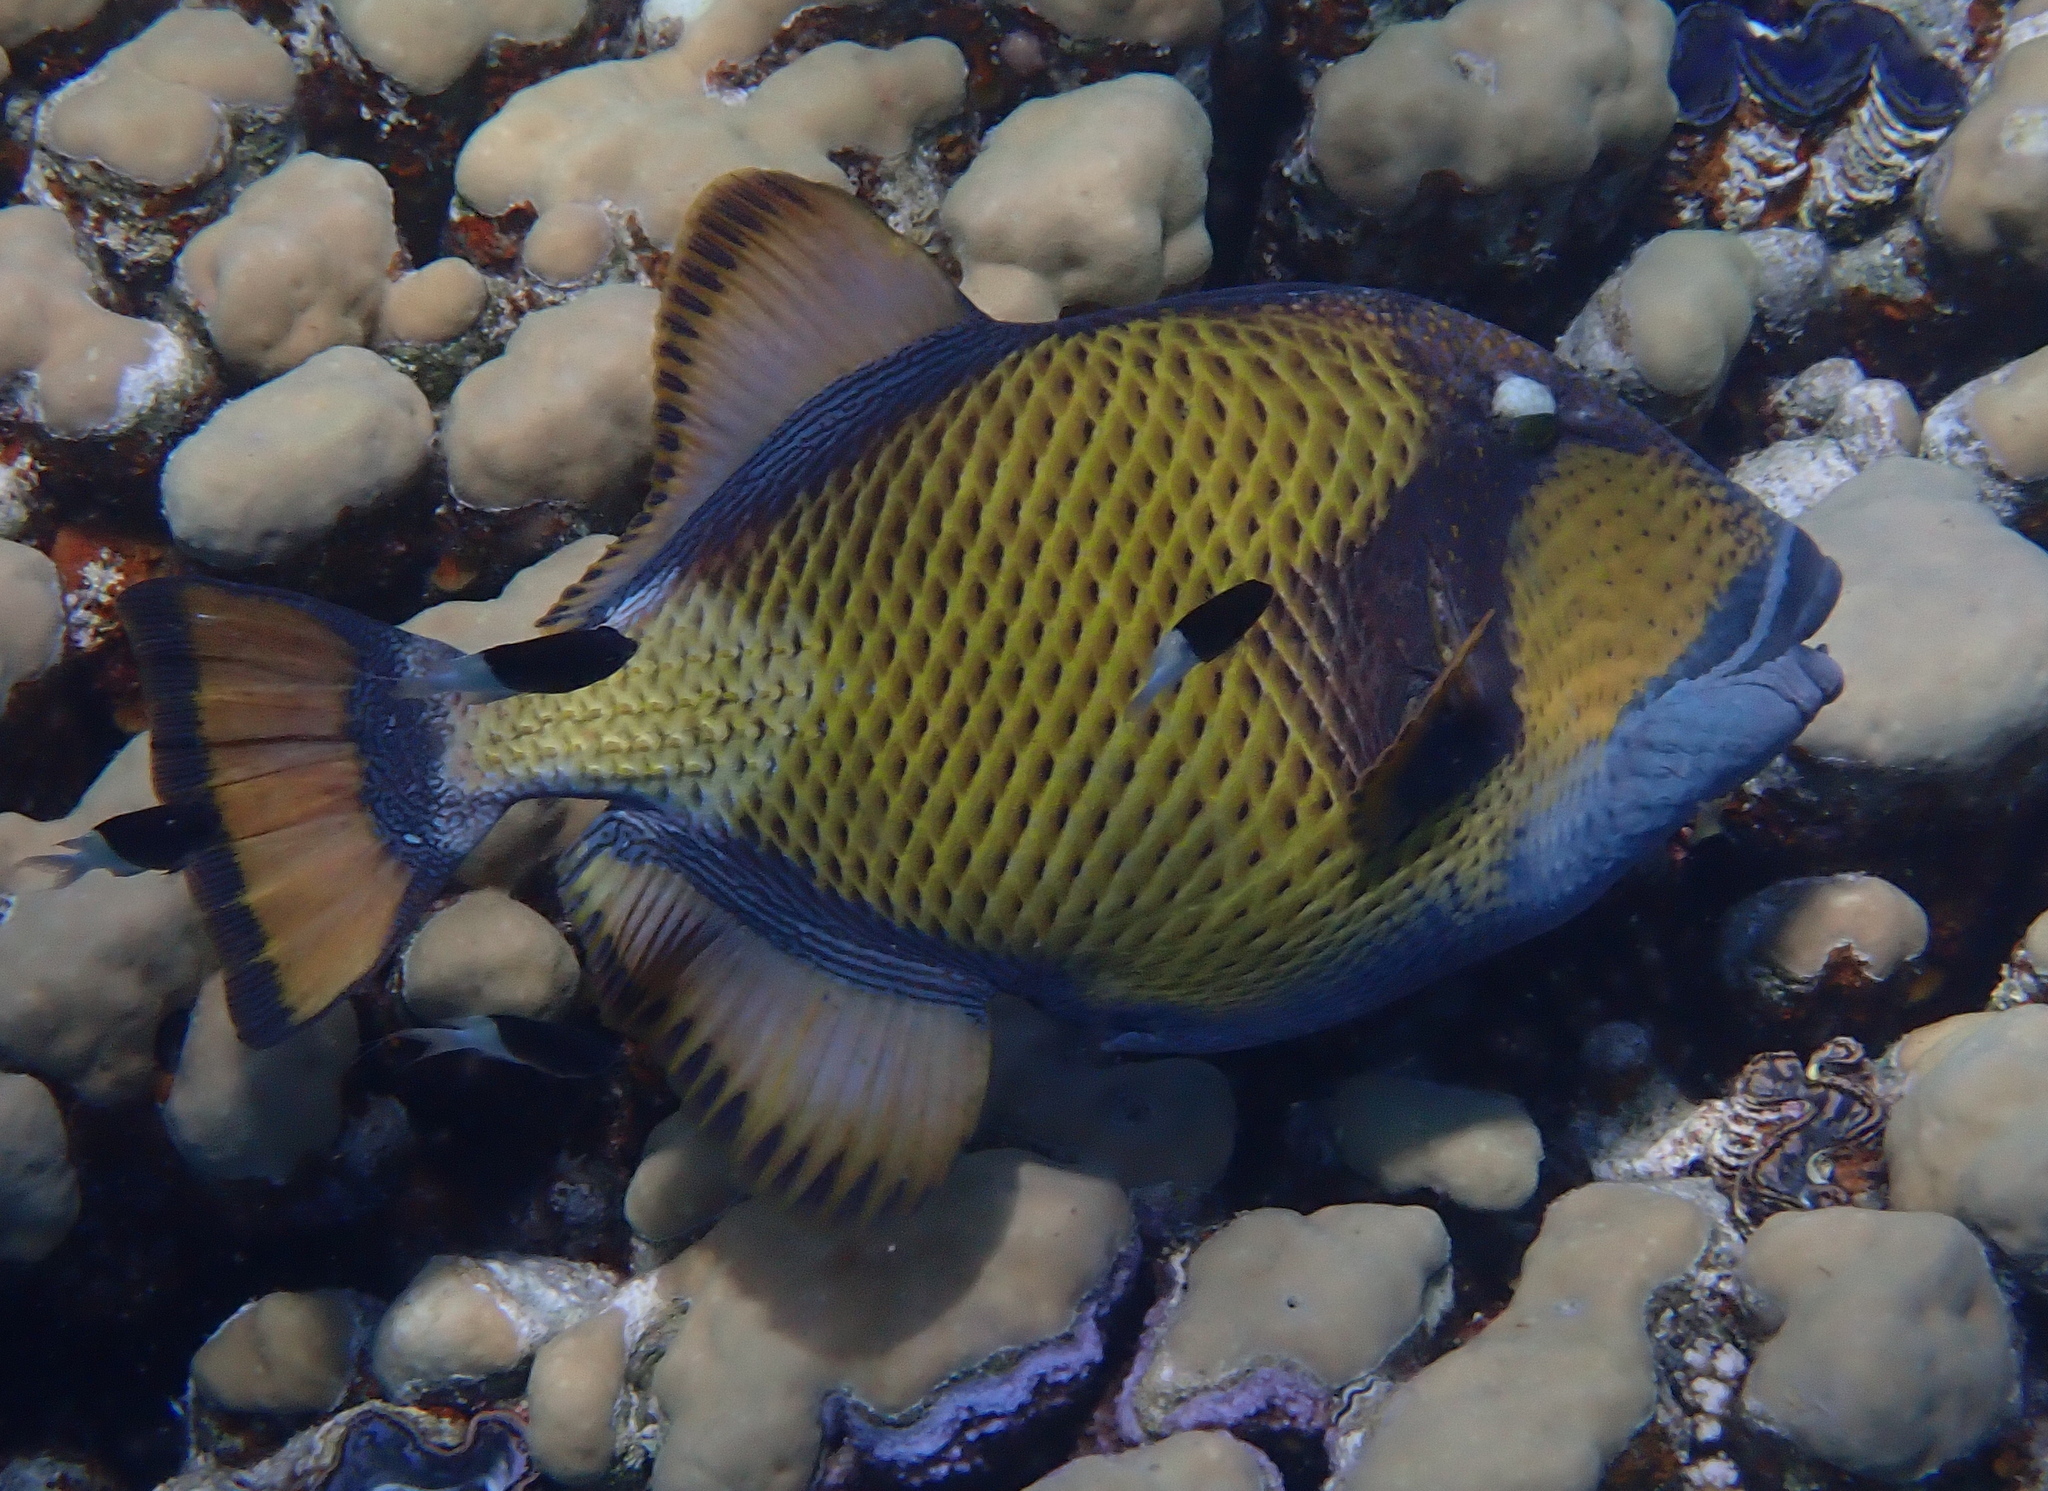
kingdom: Animalia
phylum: Chordata
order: Tetraodontiformes
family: Balistidae
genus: Balistoides
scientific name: Balistoides viridescens
